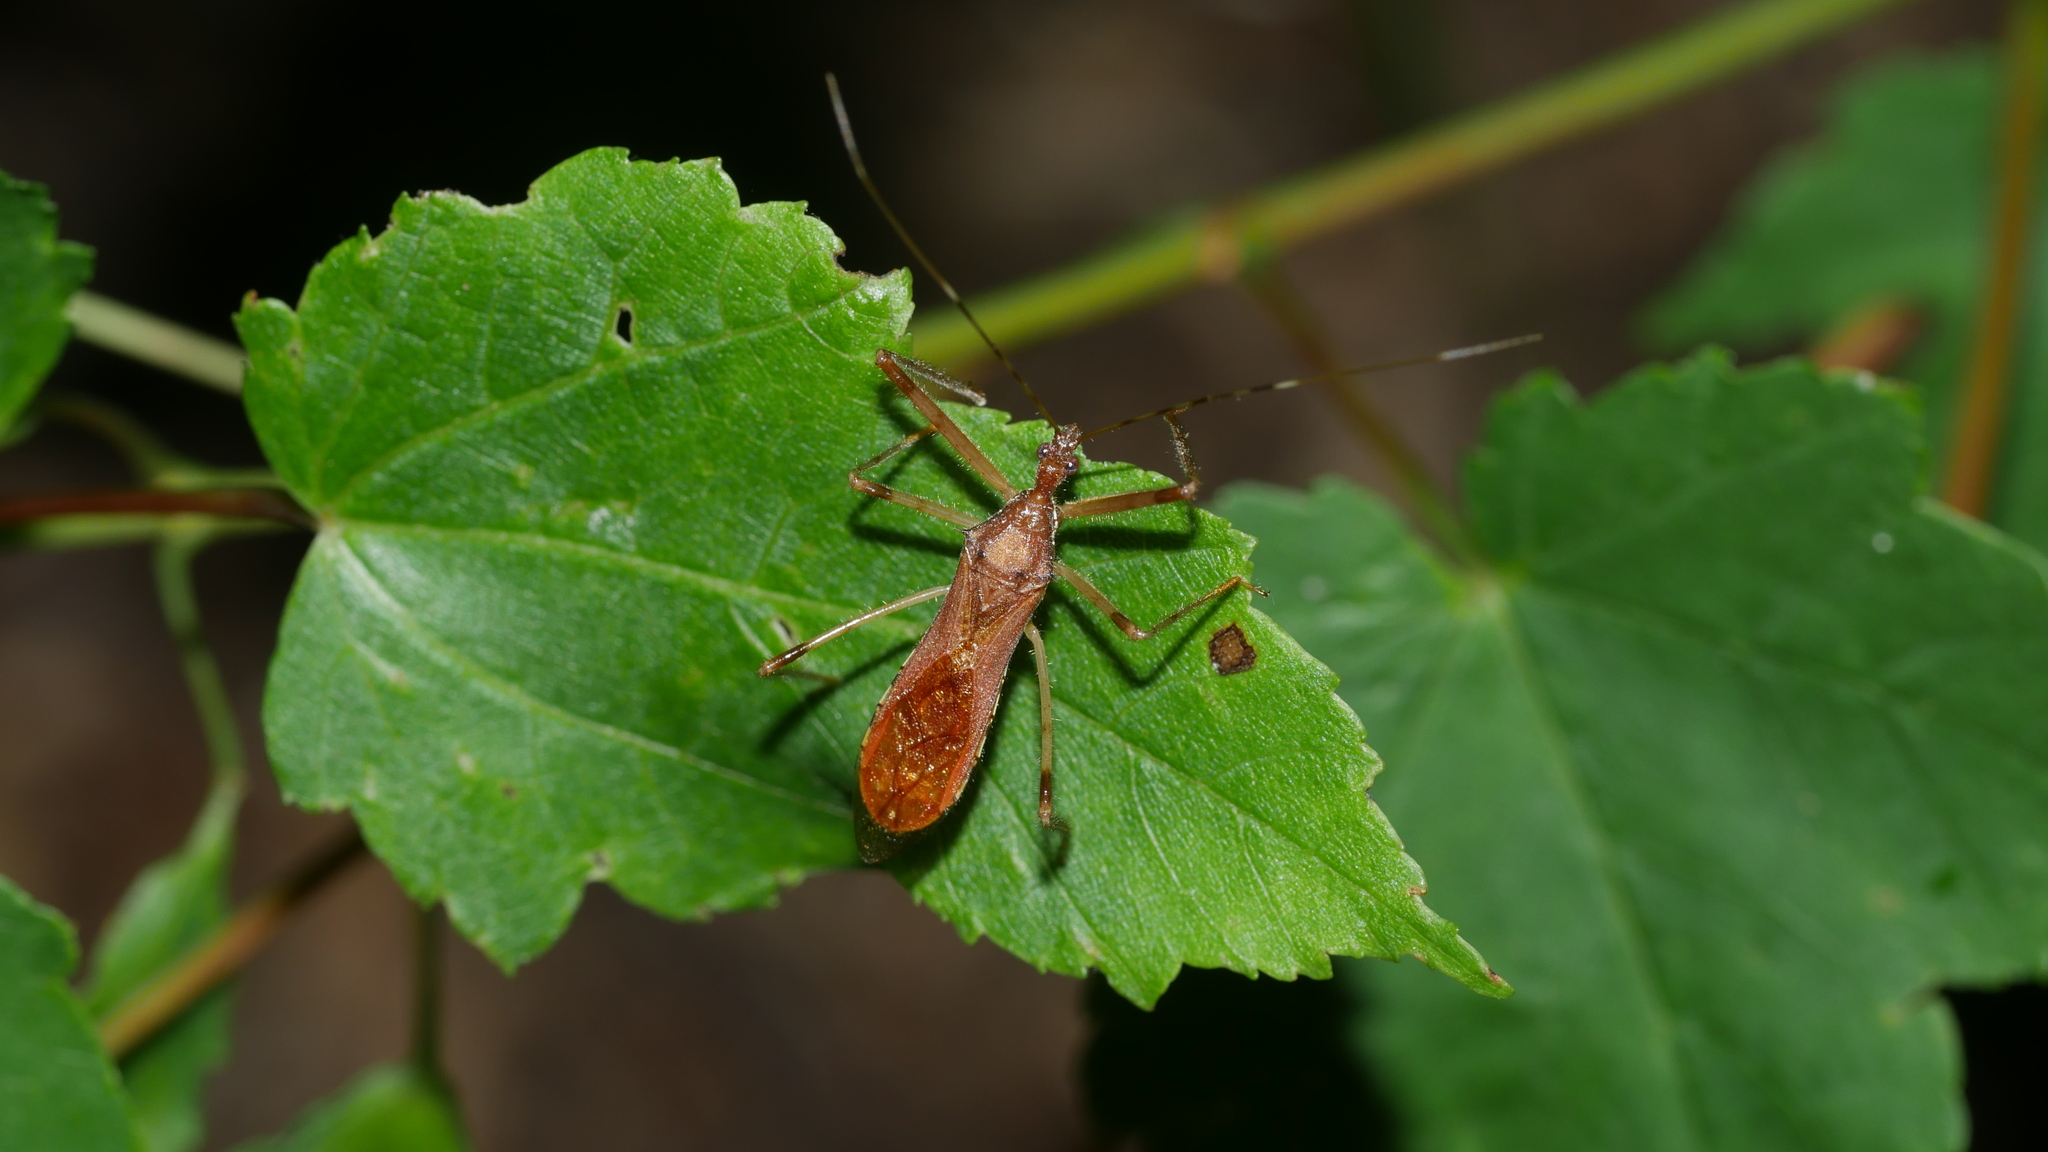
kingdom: Animalia
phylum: Arthropoda
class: Insecta
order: Hemiptera
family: Reduviidae
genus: Rocconota
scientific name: Rocconota annulicornis
